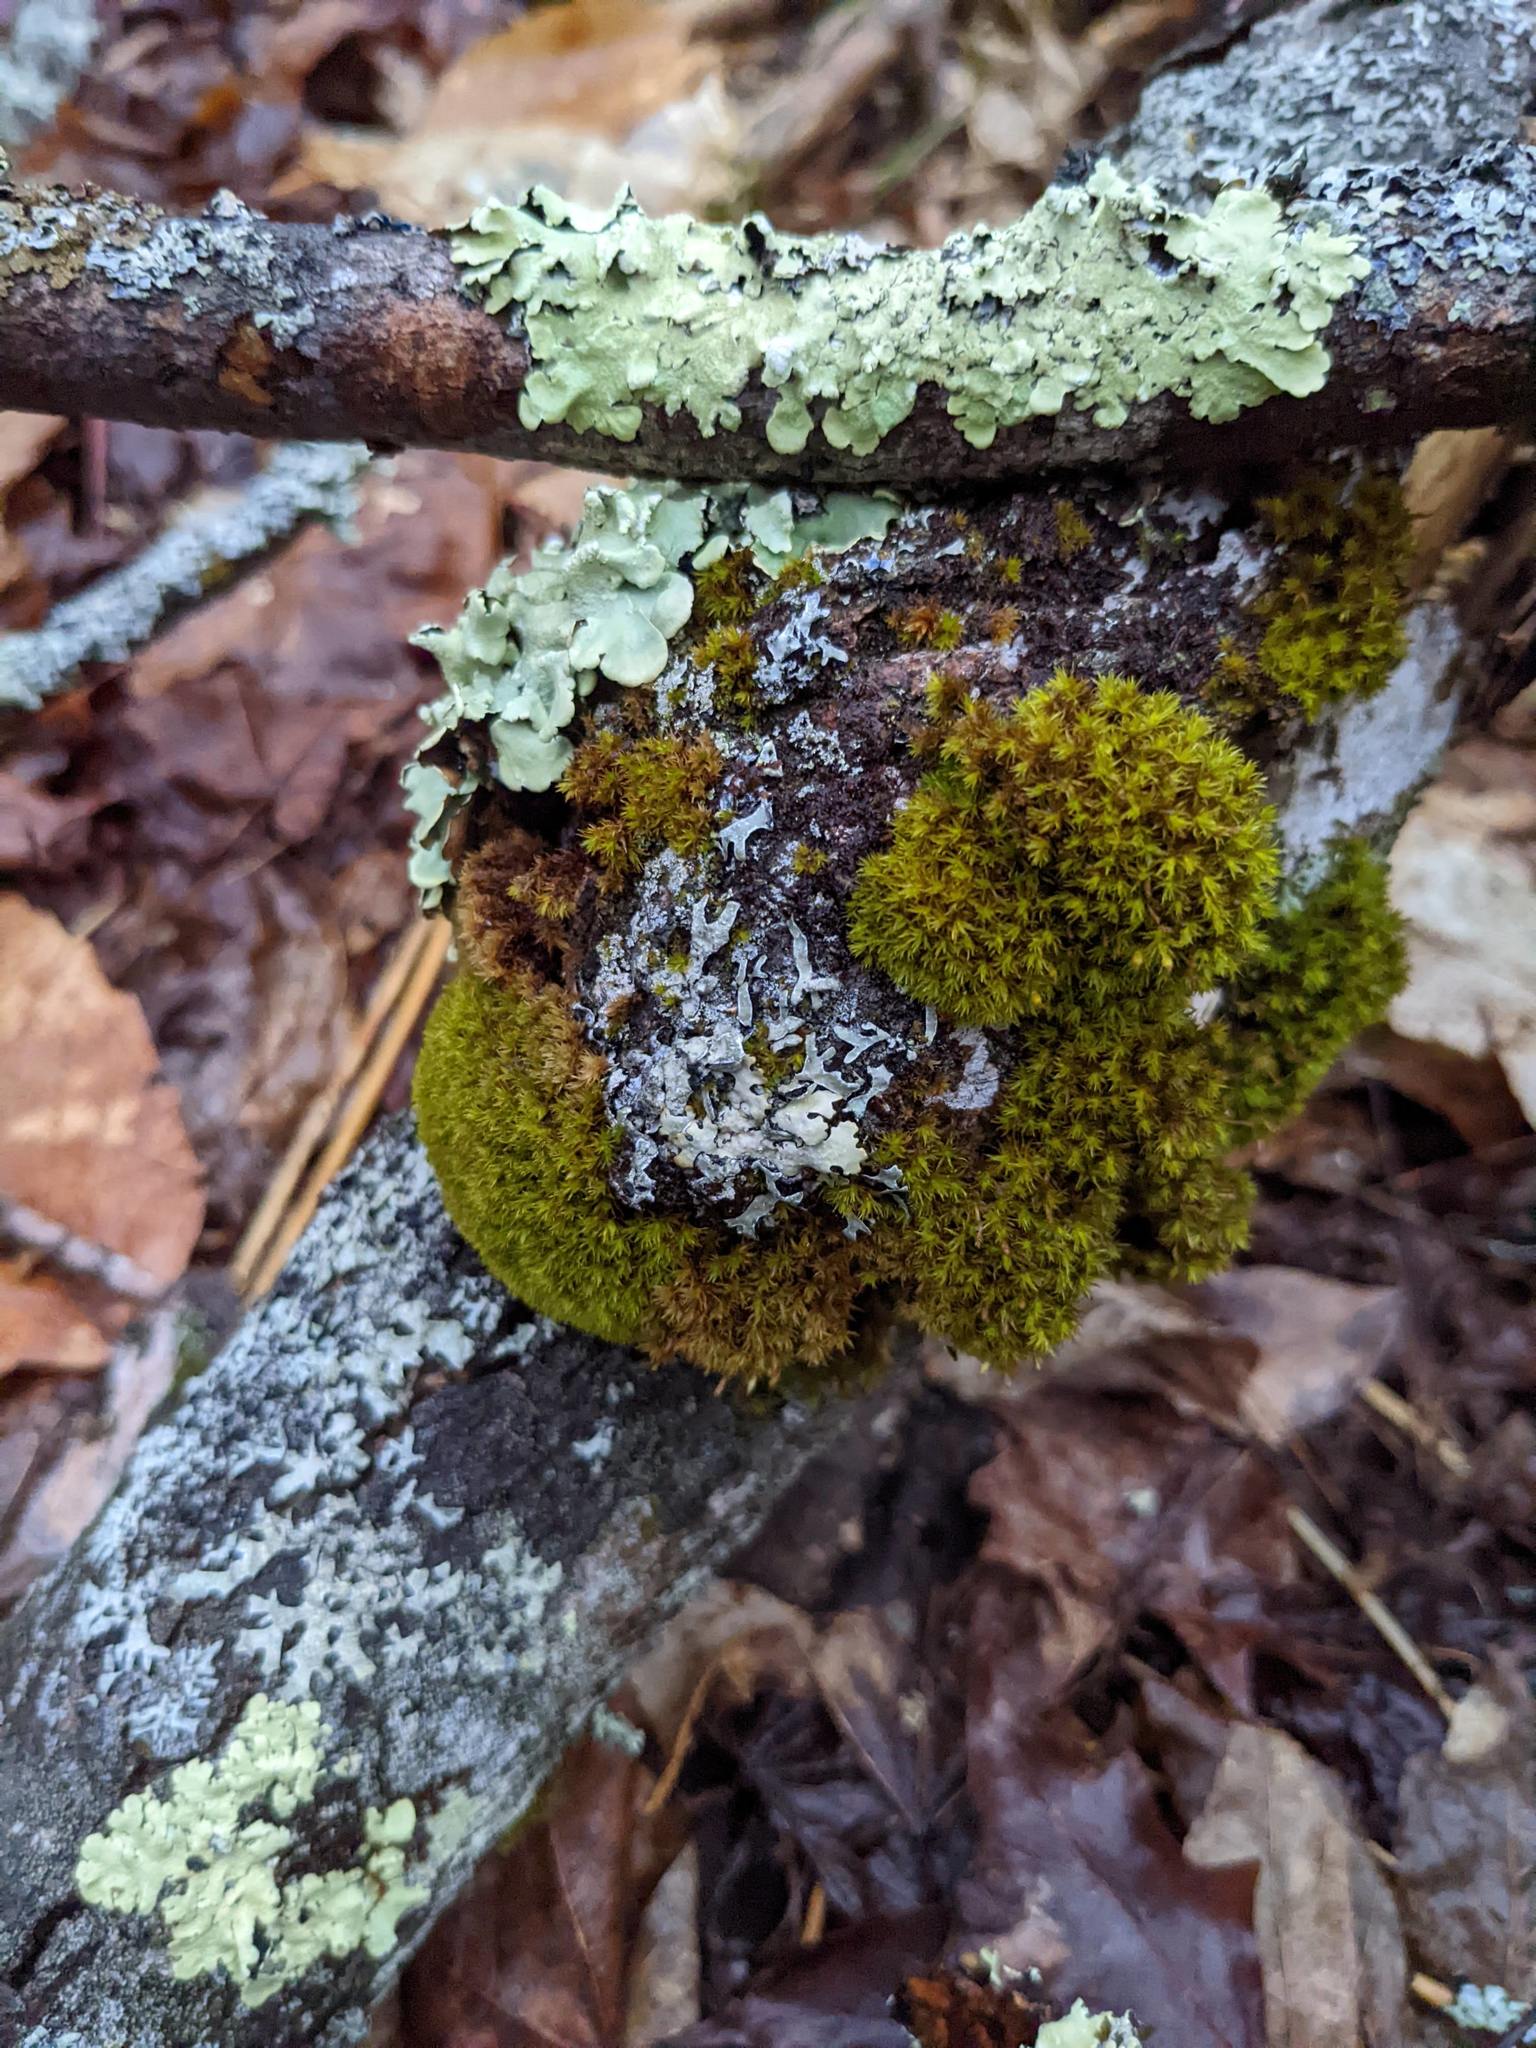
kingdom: Plantae
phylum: Bryophyta
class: Bryopsida
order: Orthotrichales
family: Orthotrichaceae
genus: Ulota
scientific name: Ulota crispa
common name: Crisped pincushion moss
